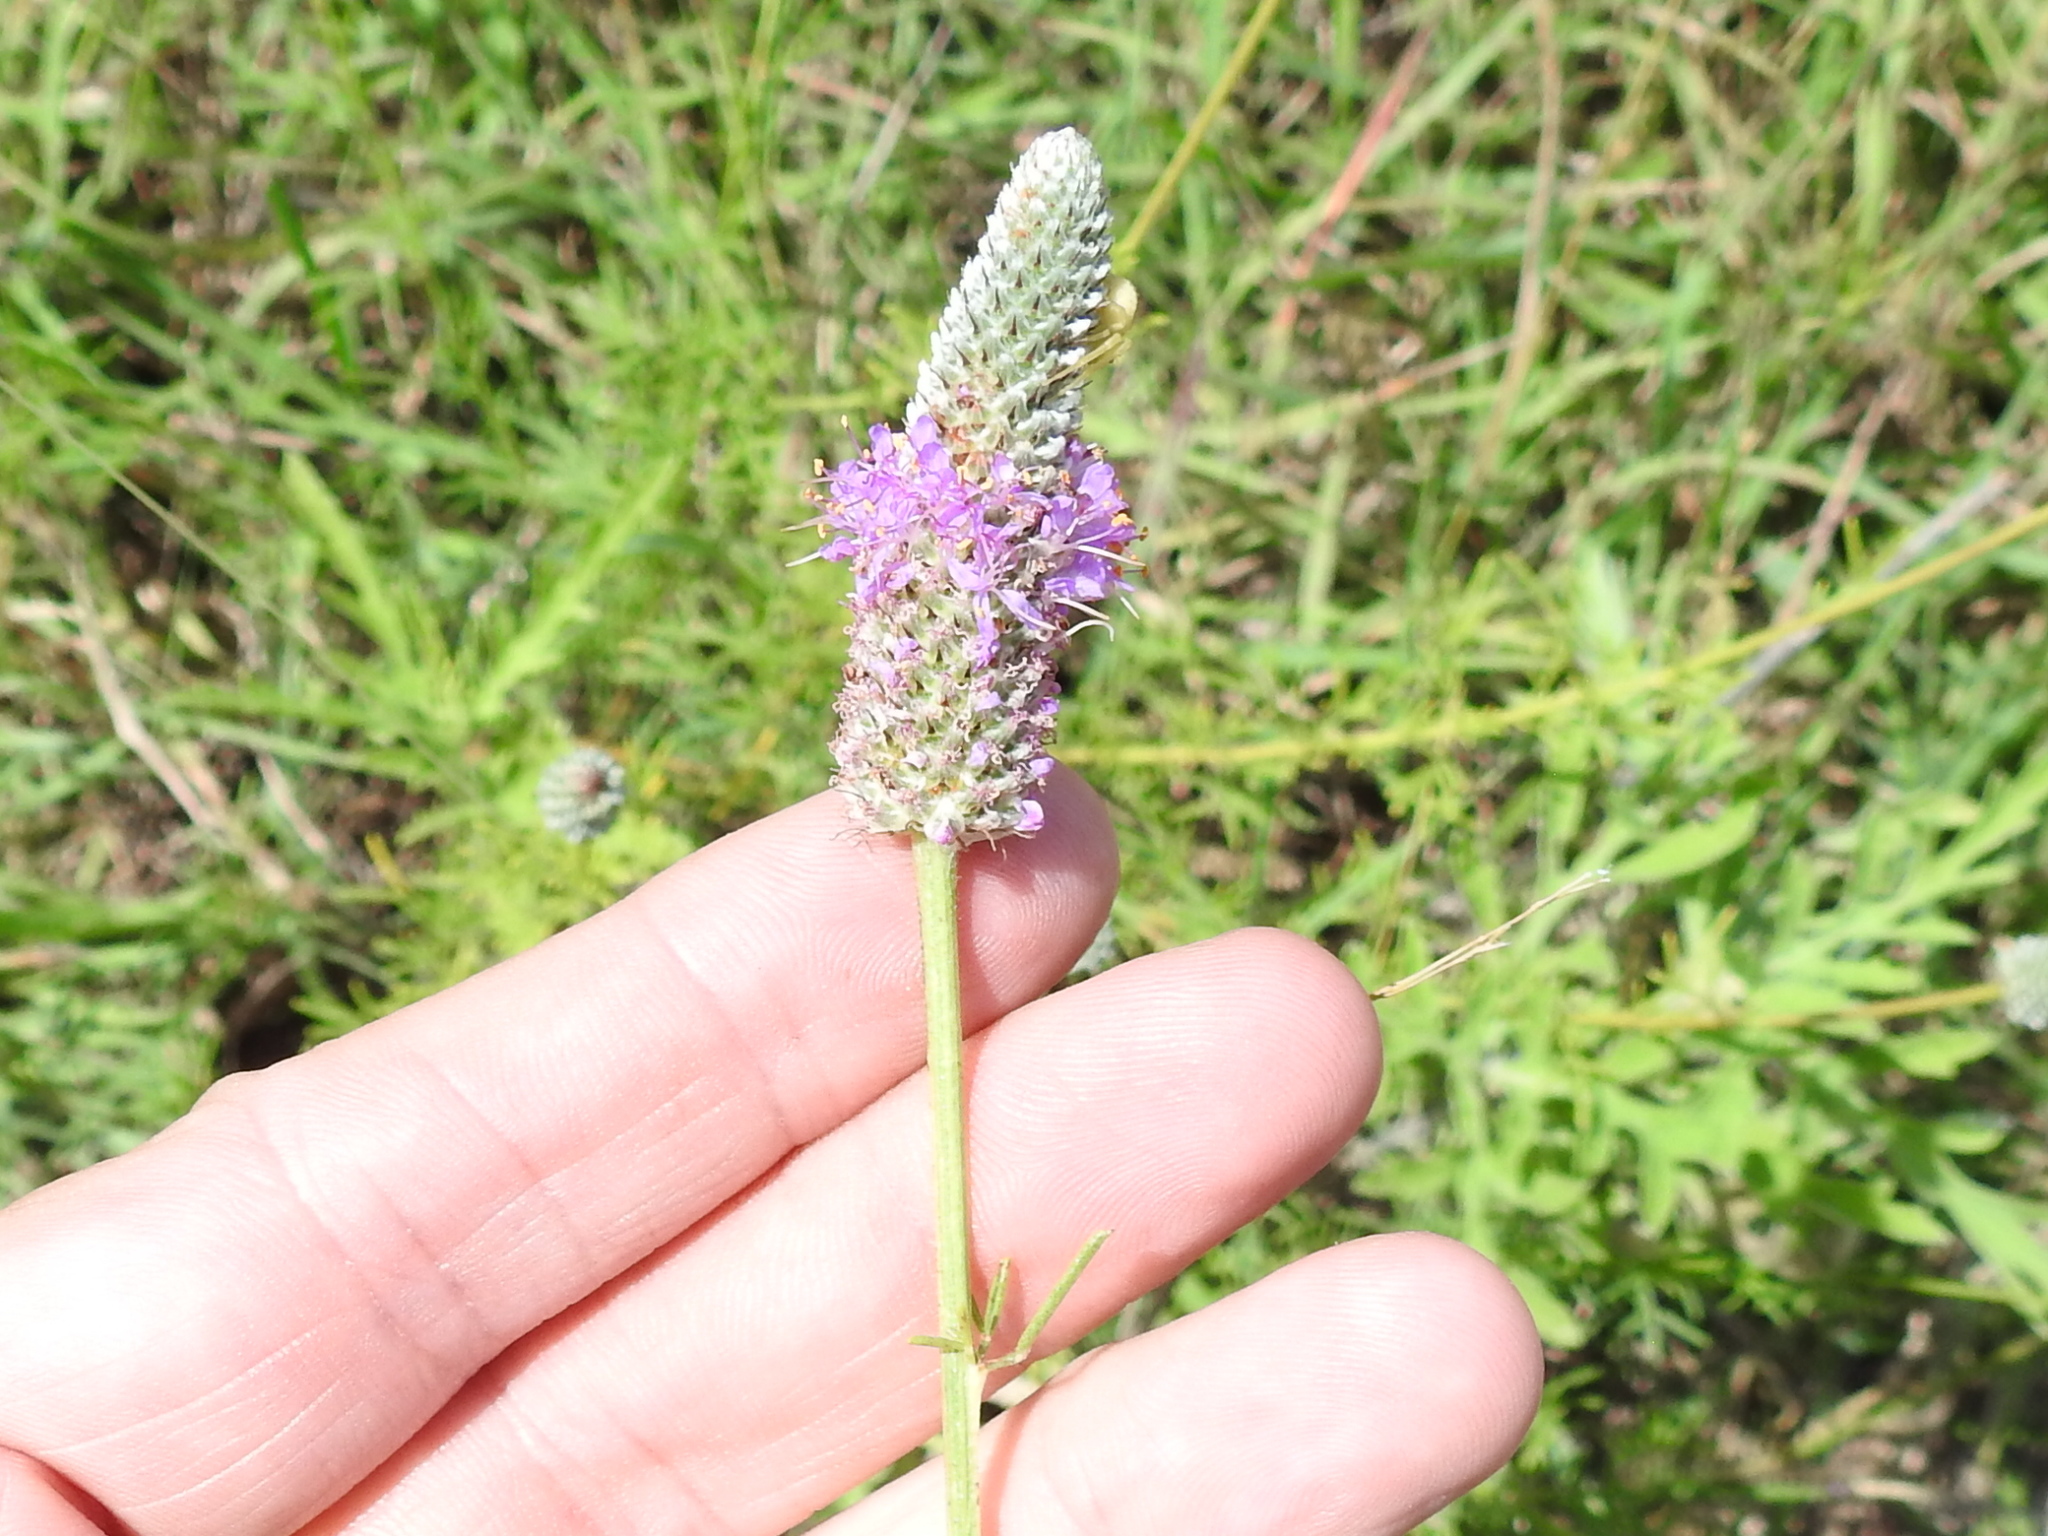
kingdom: Plantae
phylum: Tracheophyta
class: Magnoliopsida
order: Fabales
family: Fabaceae
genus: Dalea
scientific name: Dalea purpurea
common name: Purple prairie-clover
